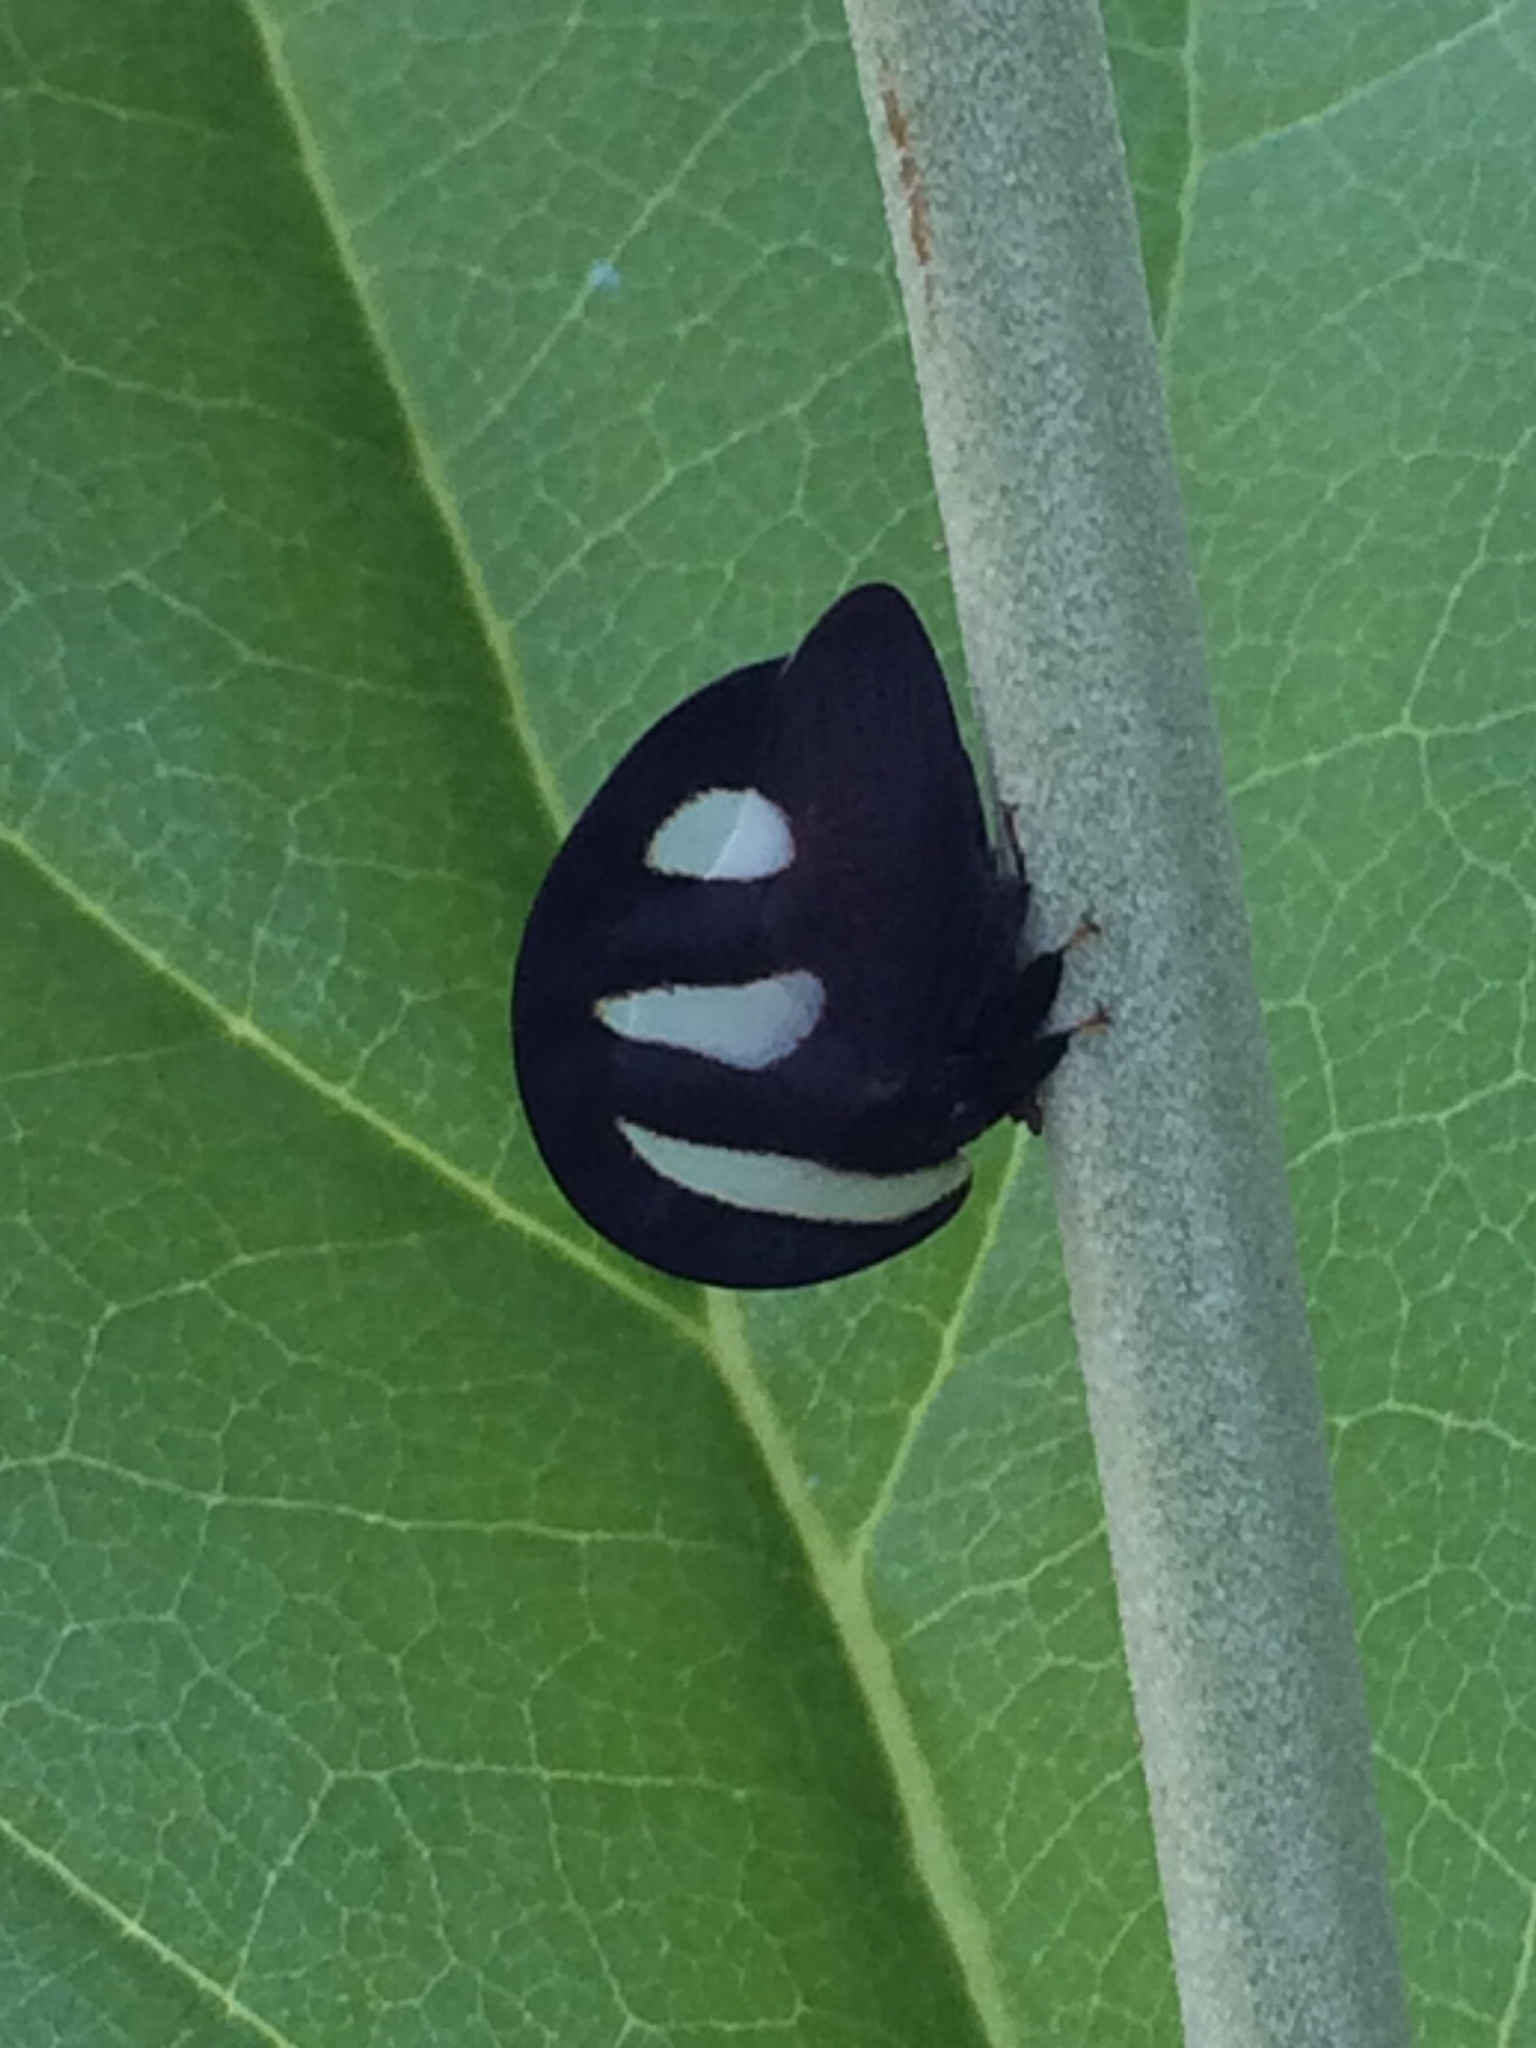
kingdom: Animalia
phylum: Arthropoda
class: Insecta
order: Hemiptera
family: Membracidae
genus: Membracis
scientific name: Membracis
